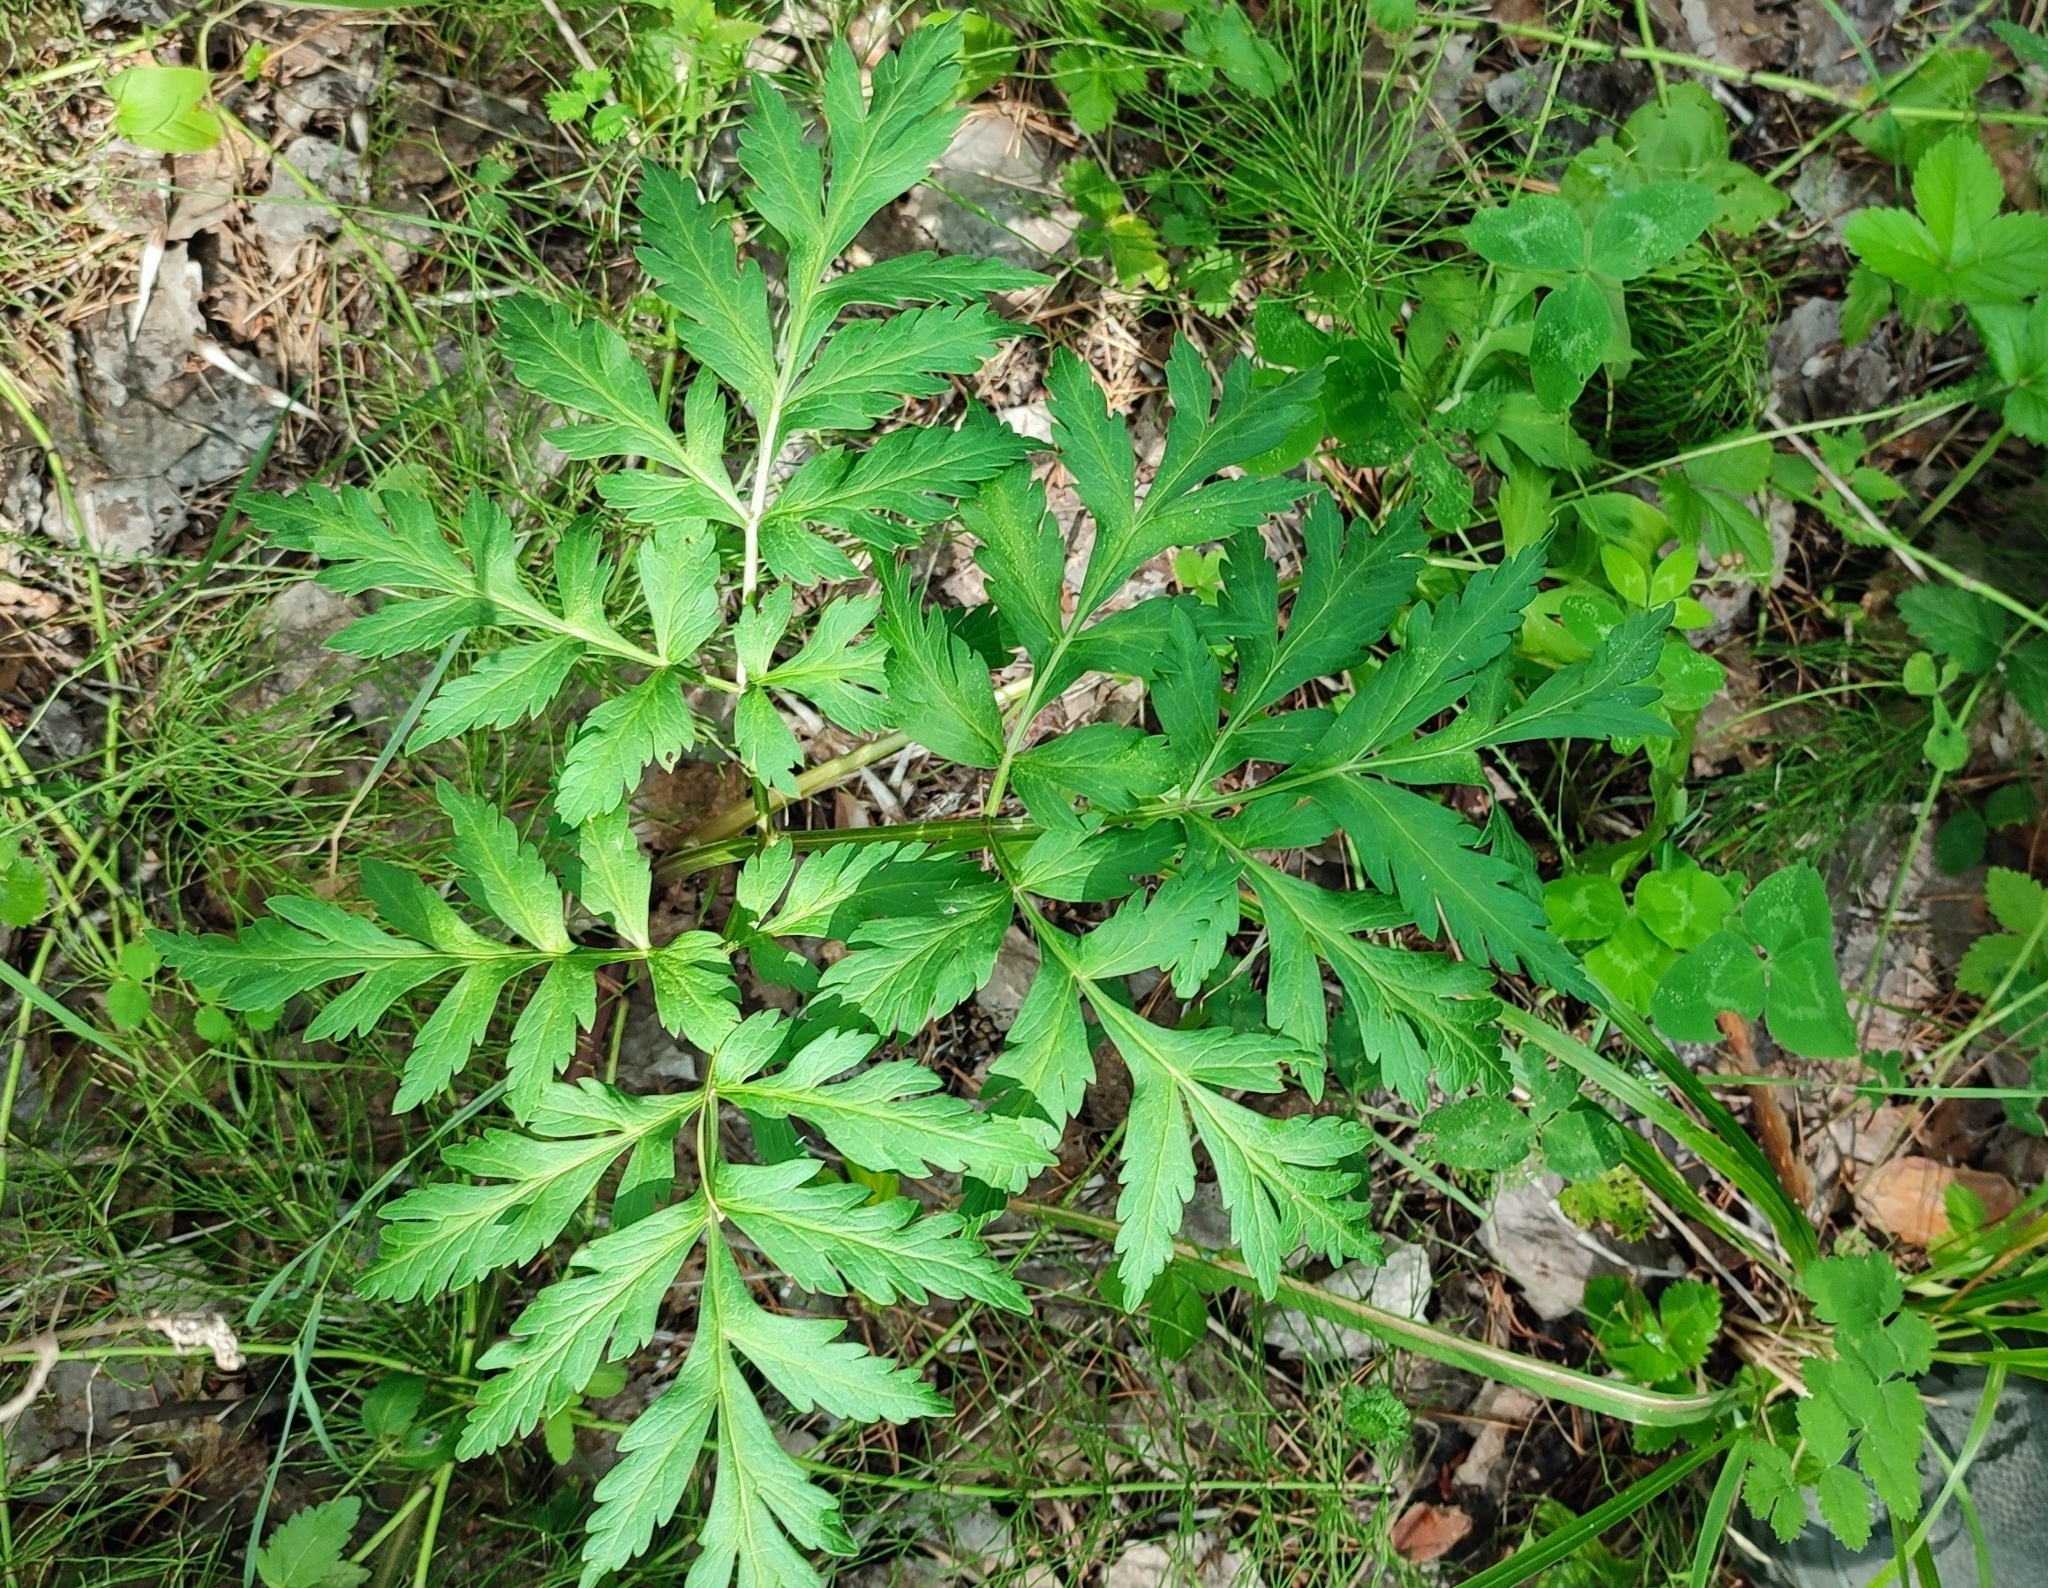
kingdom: Plantae
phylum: Tracheophyta
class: Magnoliopsida
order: Apiales
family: Apiaceae
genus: Pleurospermum
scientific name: Pleurospermum uralense
